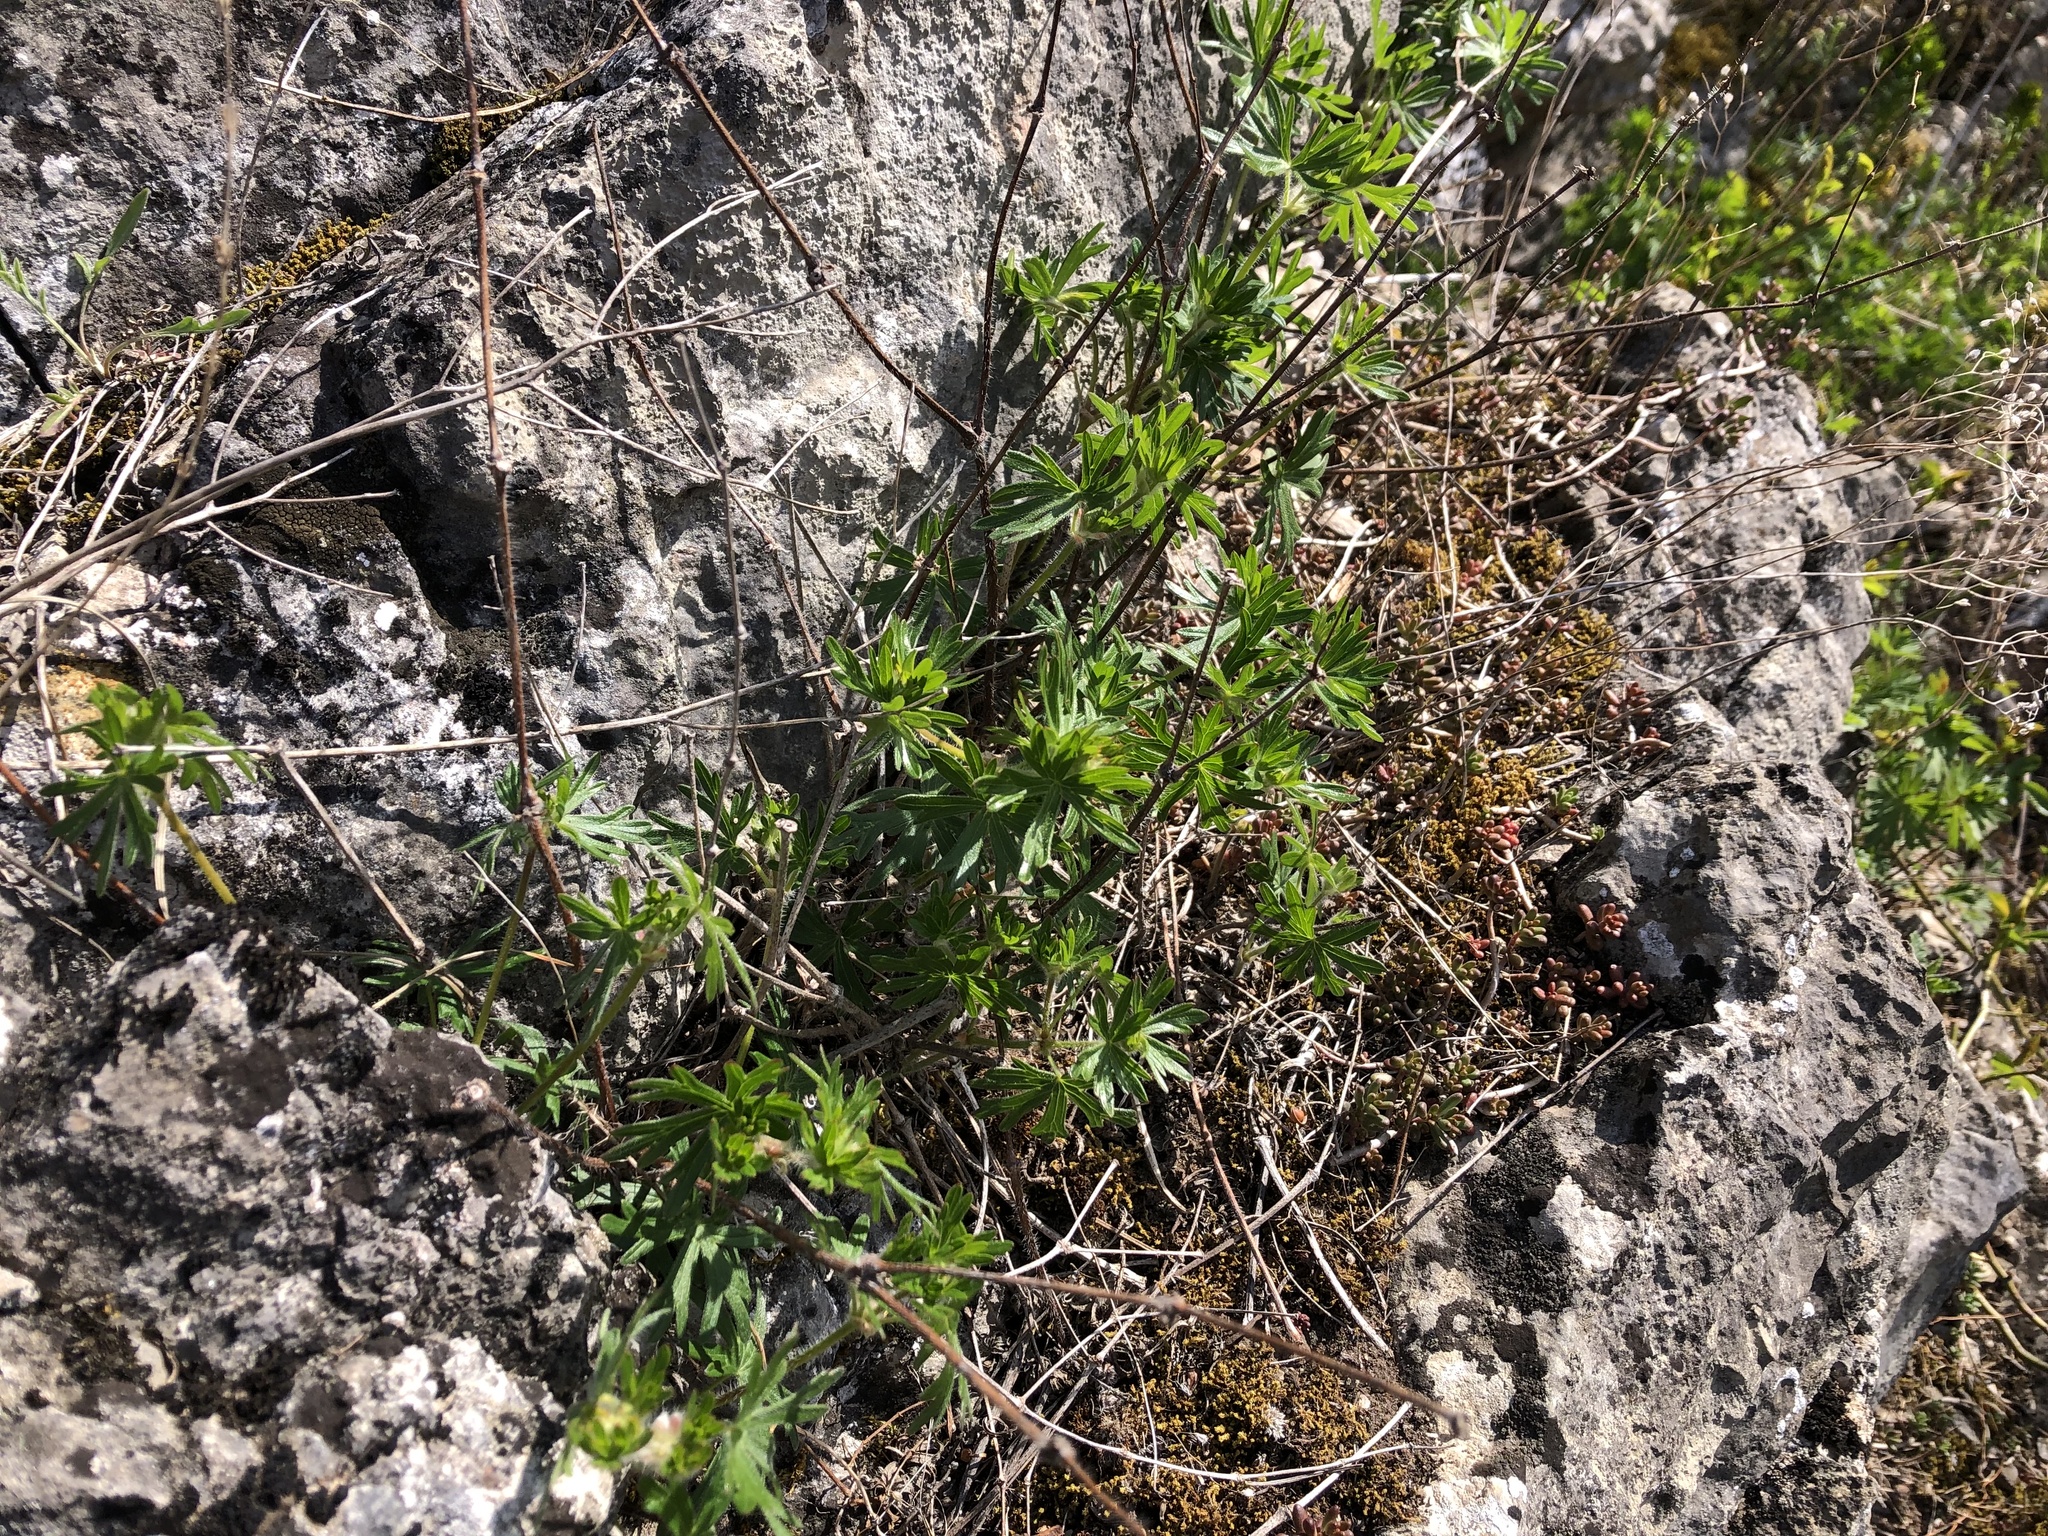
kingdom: Plantae
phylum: Tracheophyta
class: Magnoliopsida
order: Geraniales
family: Geraniaceae
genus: Geranium
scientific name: Geranium sanguineum
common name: Bloody crane's-bill
